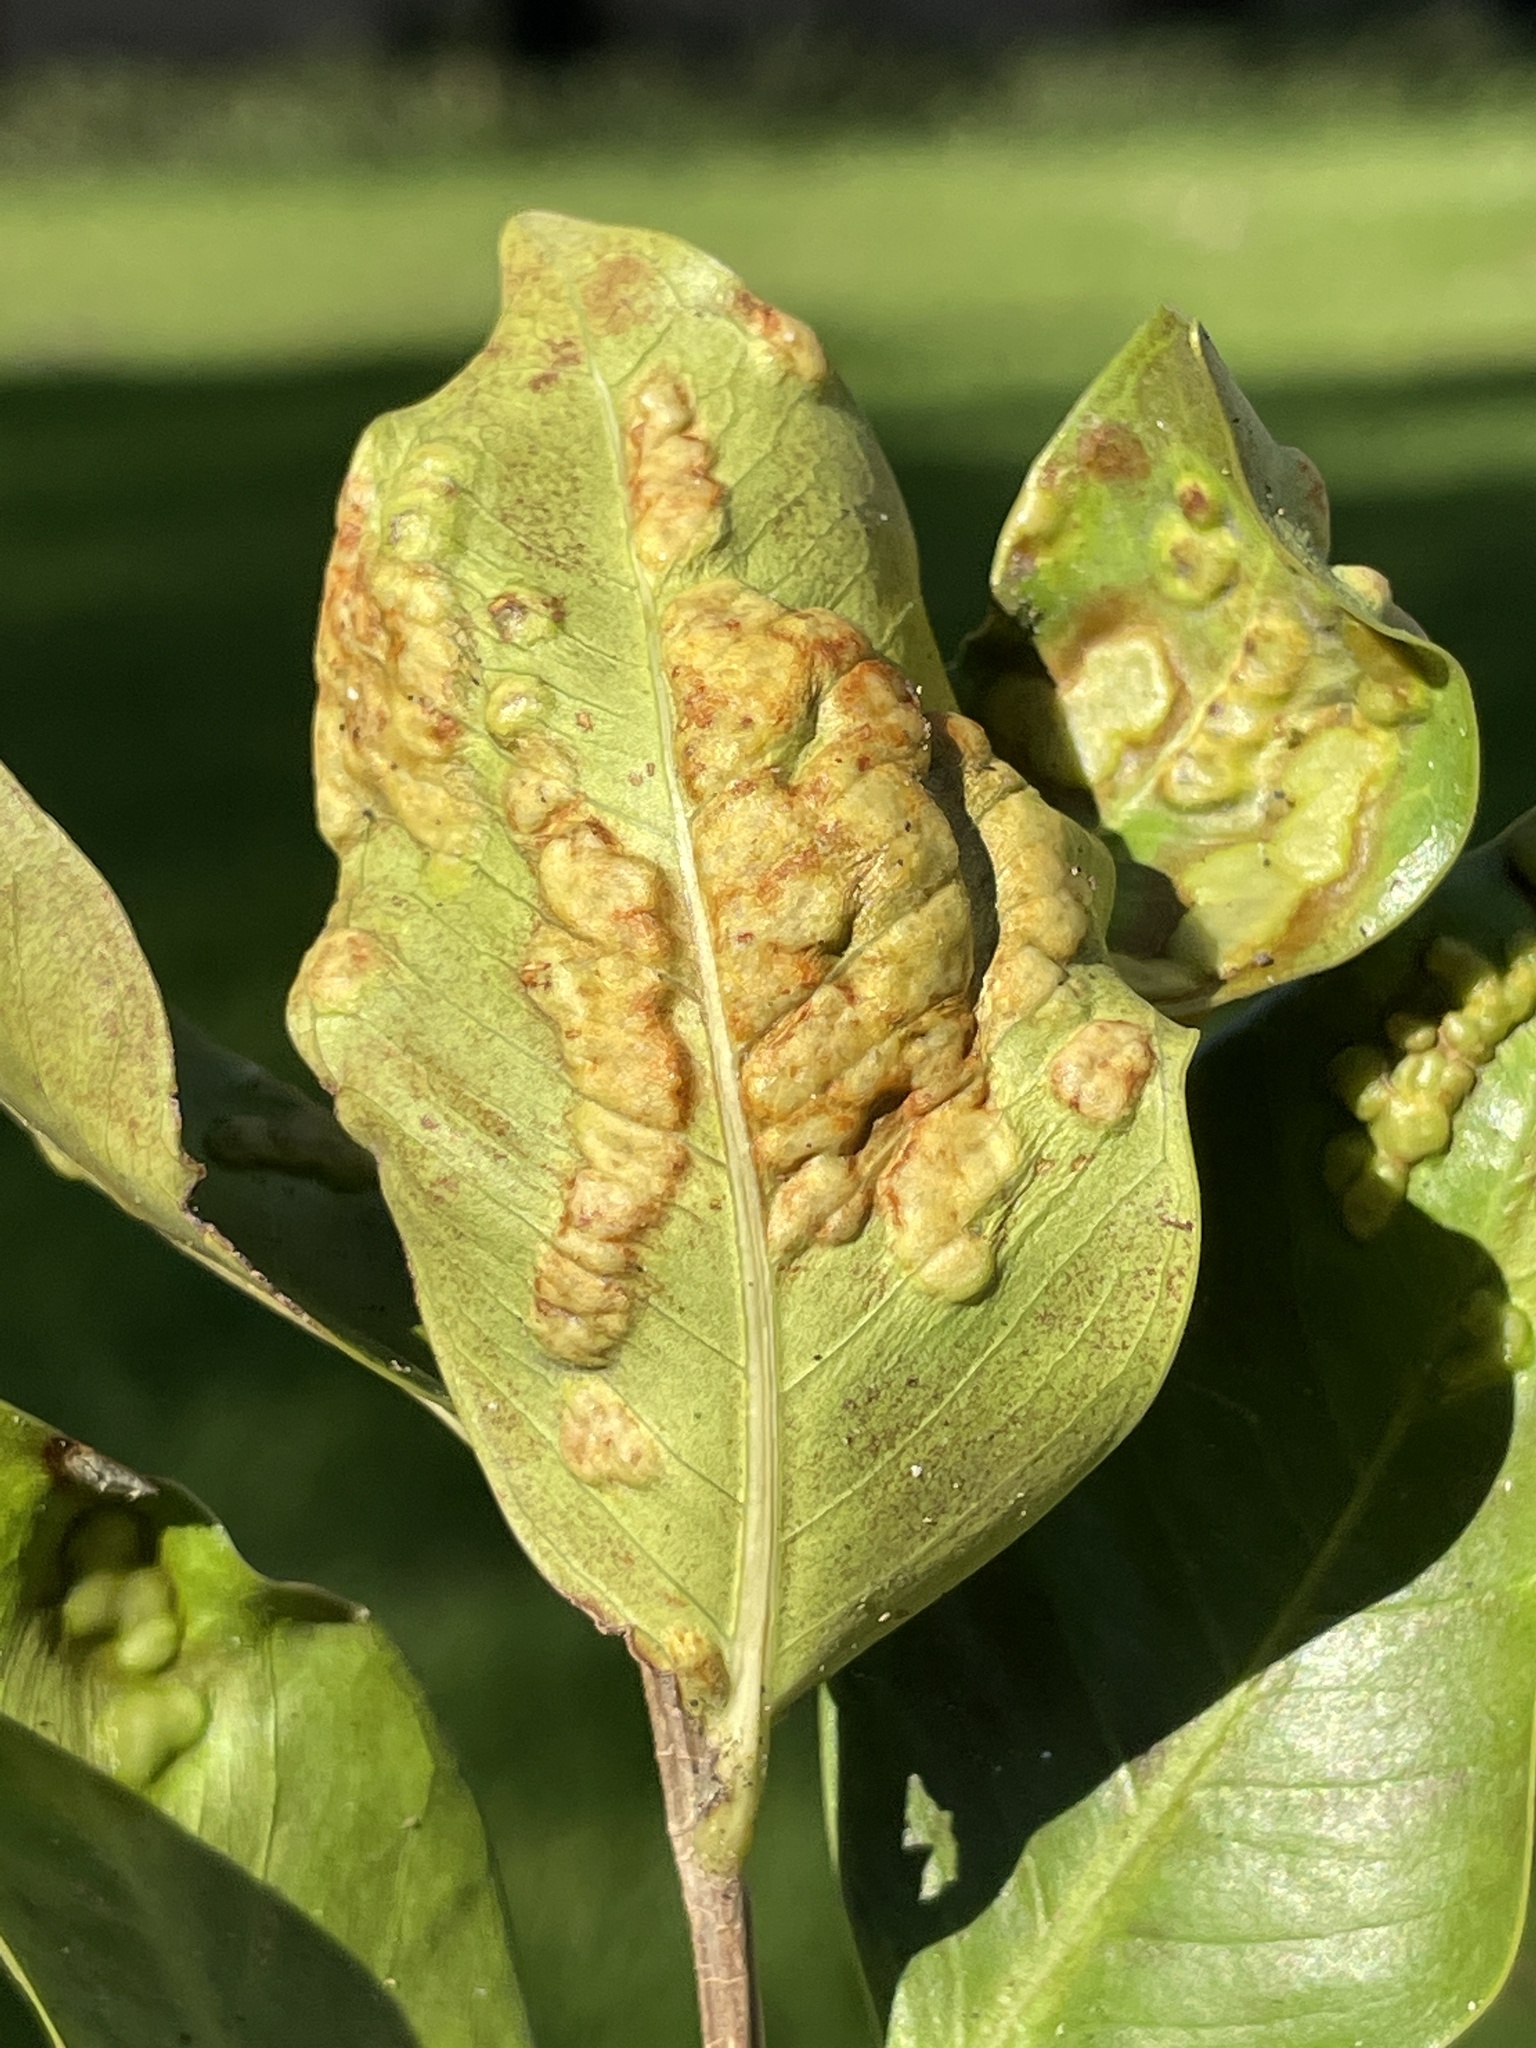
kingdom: Animalia
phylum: Arthropoda
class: Insecta
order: Hymenoptera
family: Agaonidae
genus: Josephiella
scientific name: Josephiella microcarpae
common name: Wasp
